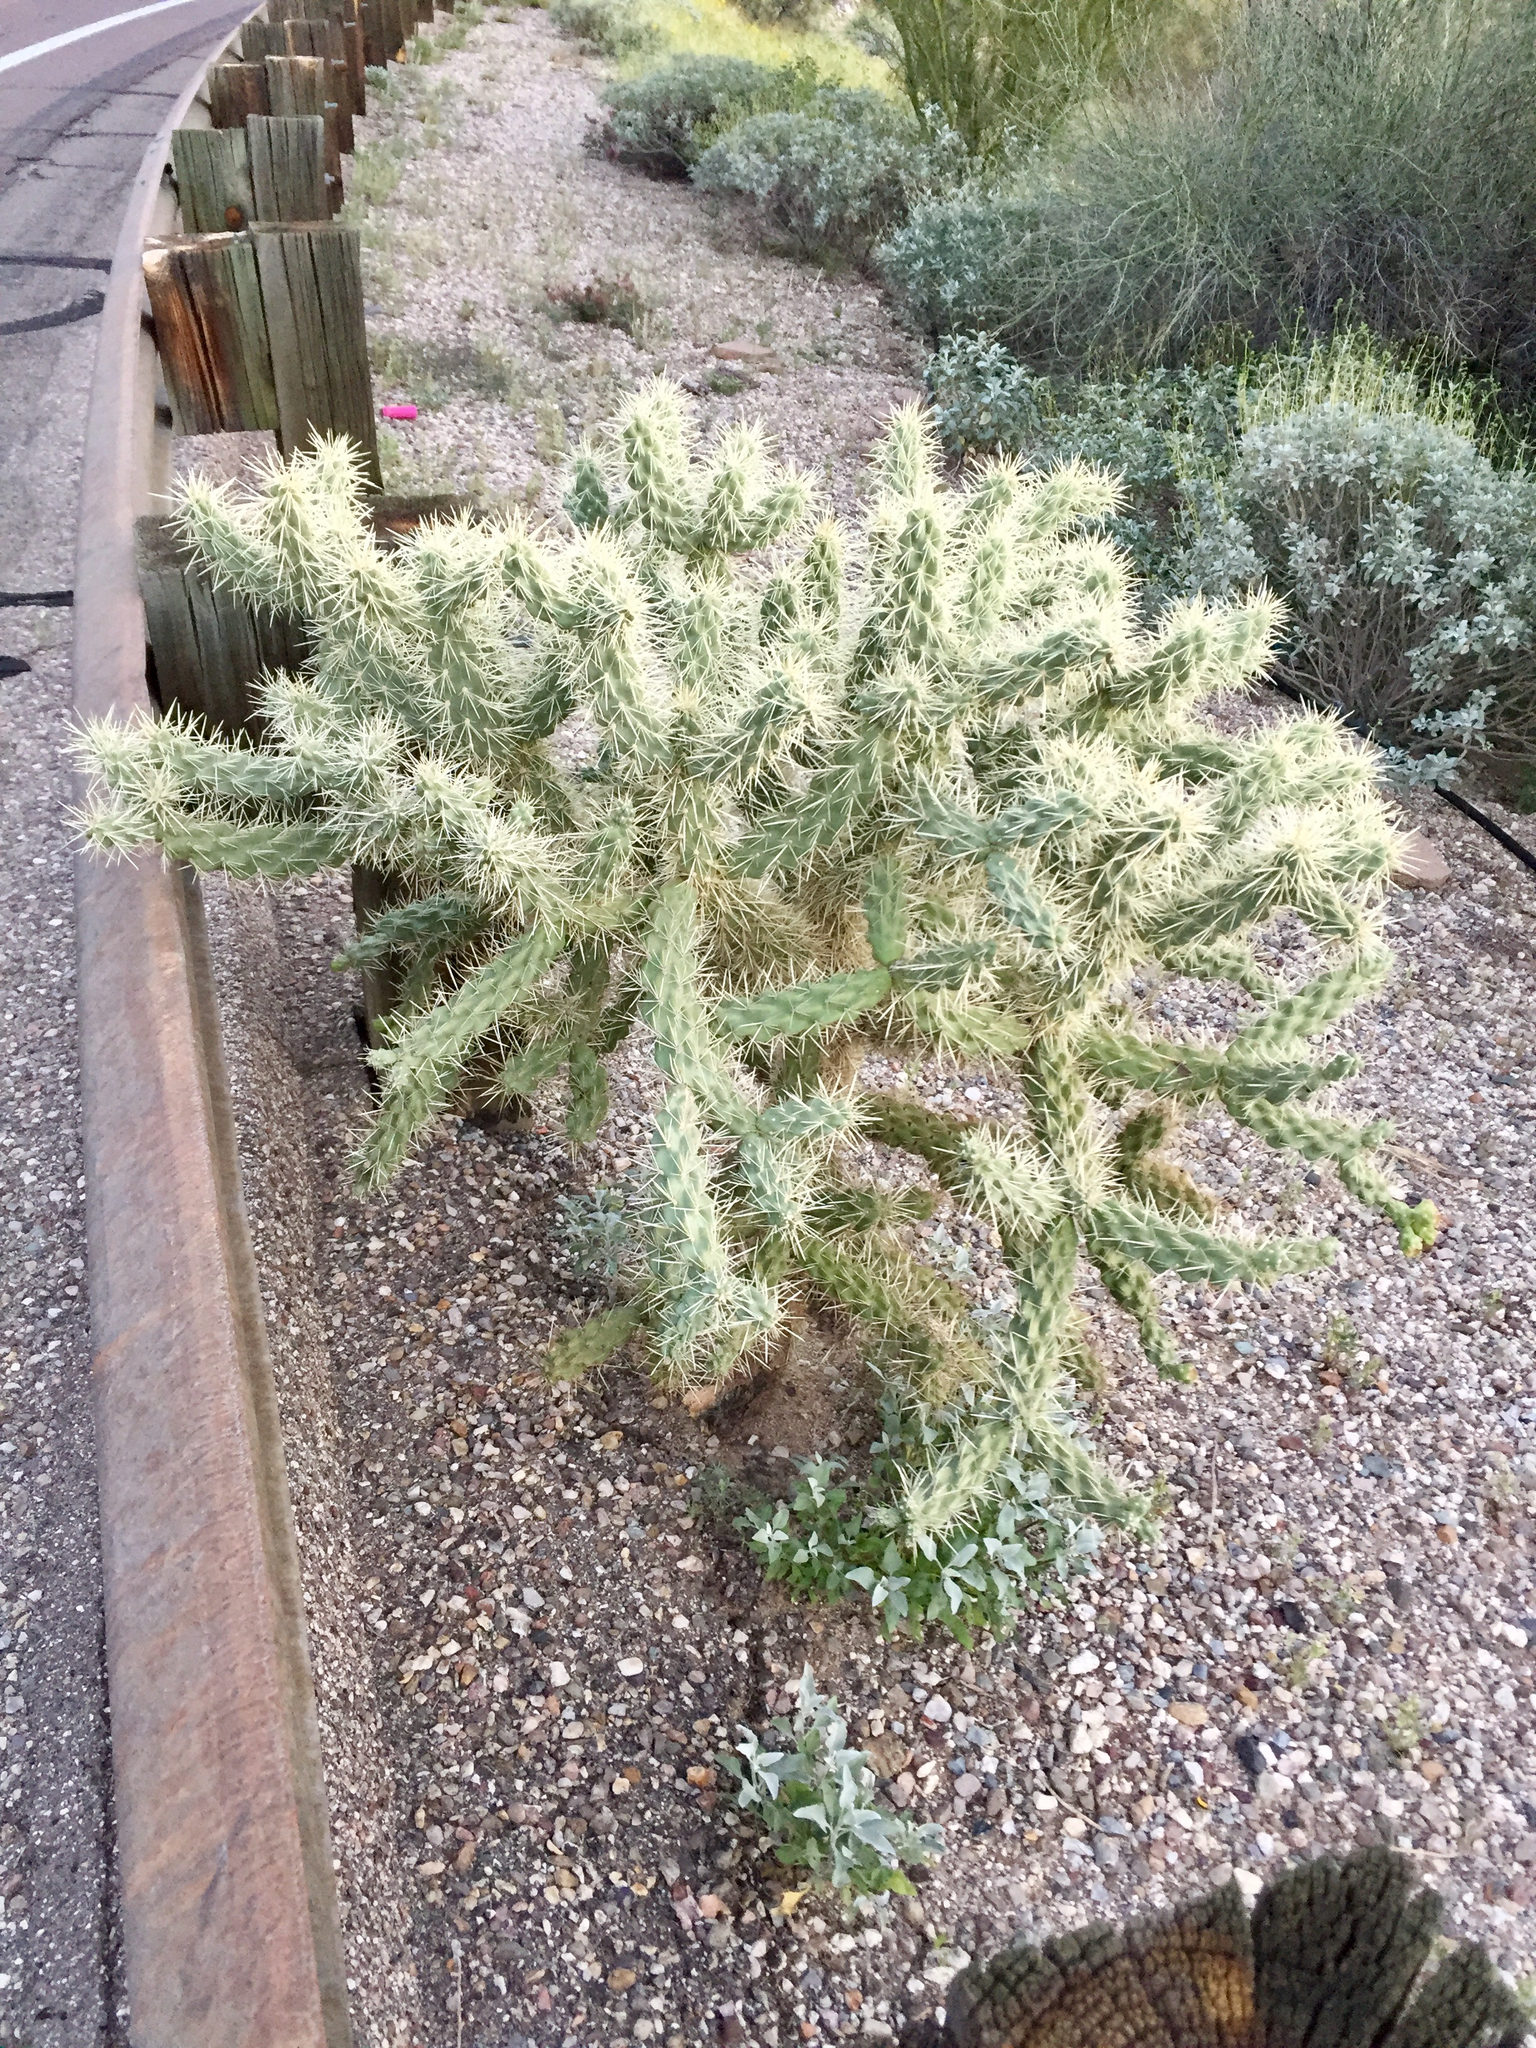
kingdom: Plantae
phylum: Tracheophyta
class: Magnoliopsida
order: Caryophyllales
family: Cactaceae
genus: Cylindropuntia
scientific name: Cylindropuntia fulgida
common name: Jumping cholla
